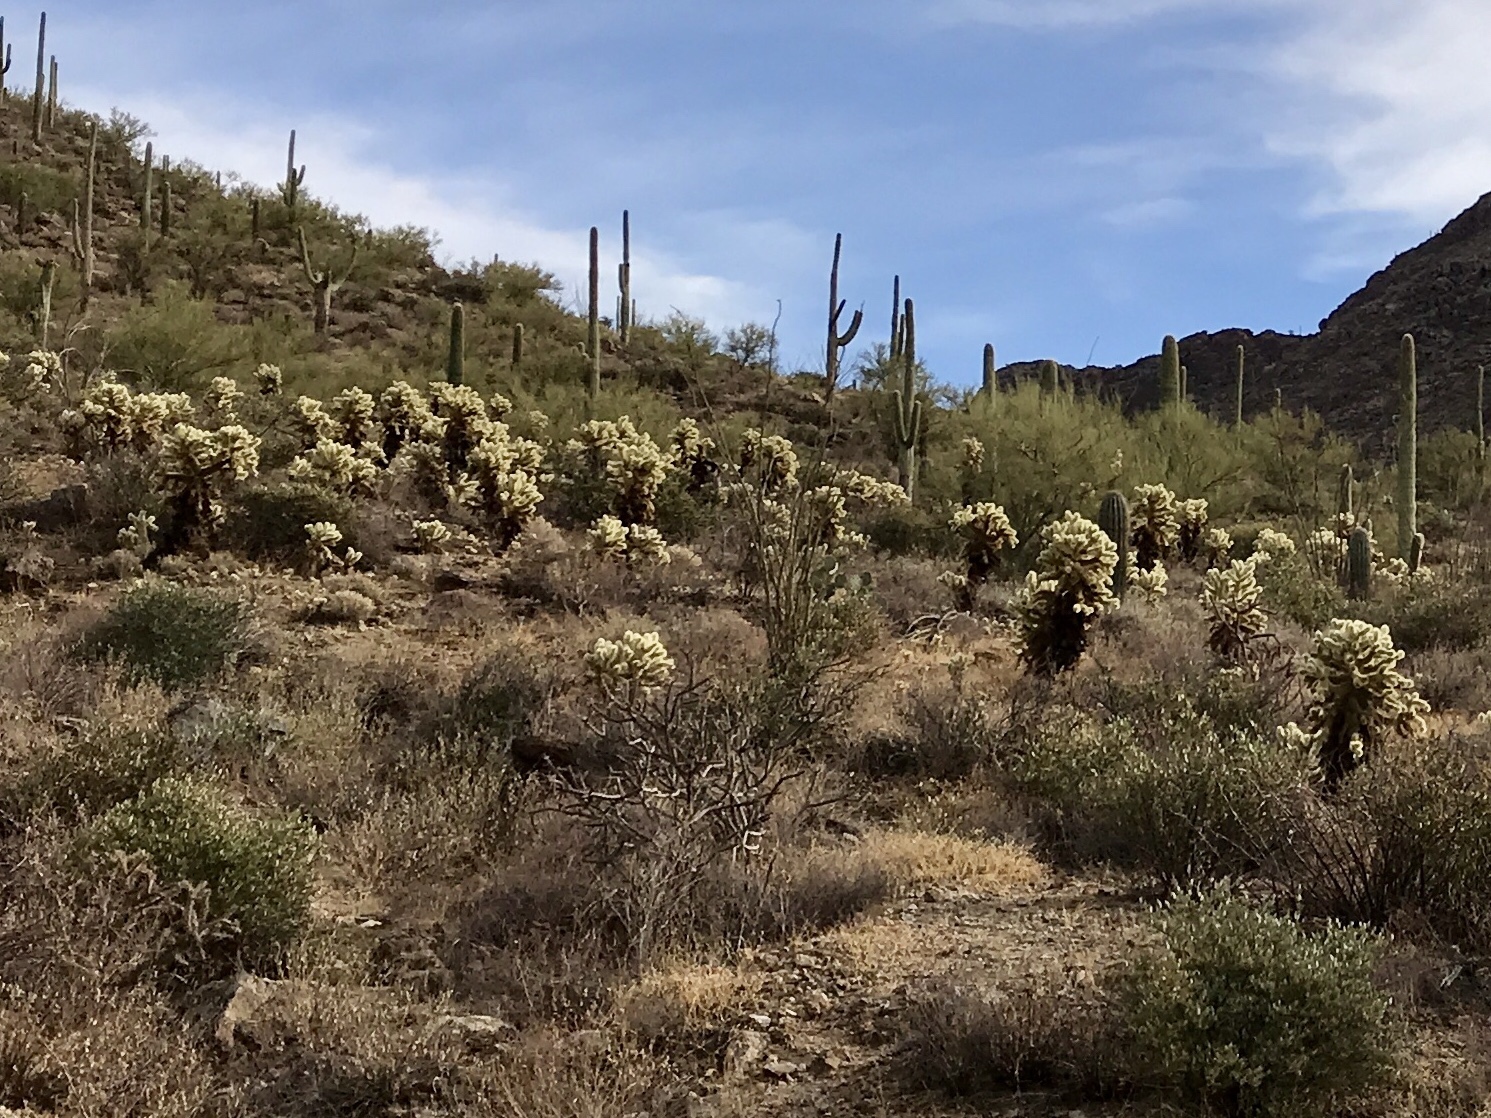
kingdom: Plantae
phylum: Tracheophyta
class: Magnoliopsida
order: Caryophyllales
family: Cactaceae
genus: Cylindropuntia
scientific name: Cylindropuntia fosbergii
